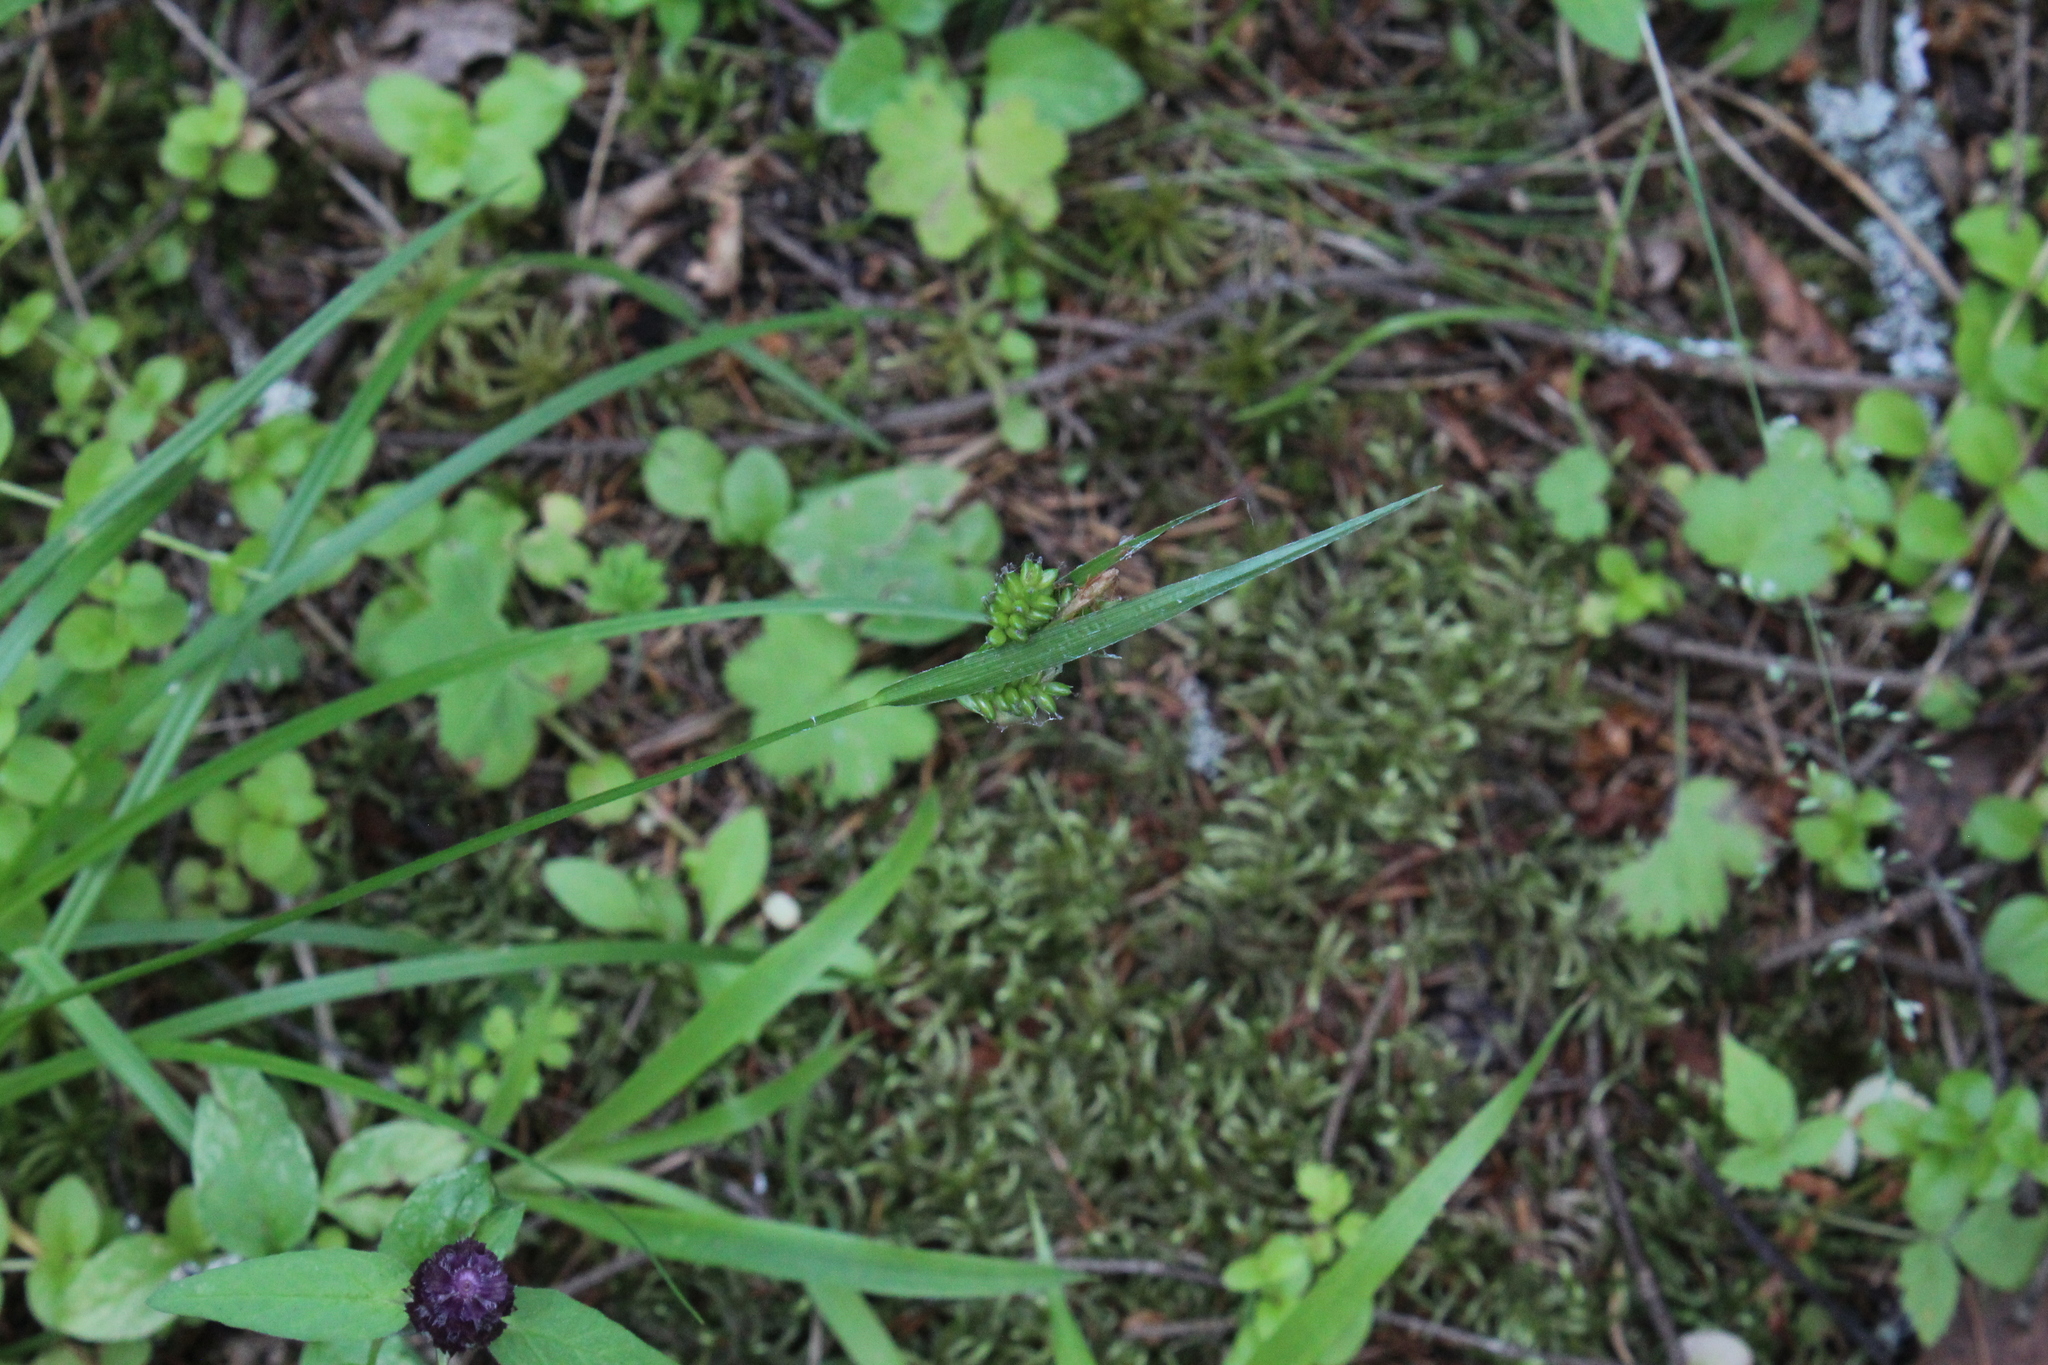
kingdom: Plantae
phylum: Tracheophyta
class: Liliopsida
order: Poales
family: Cyperaceae
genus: Carex
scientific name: Carex pallescens
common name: Pale sedge
